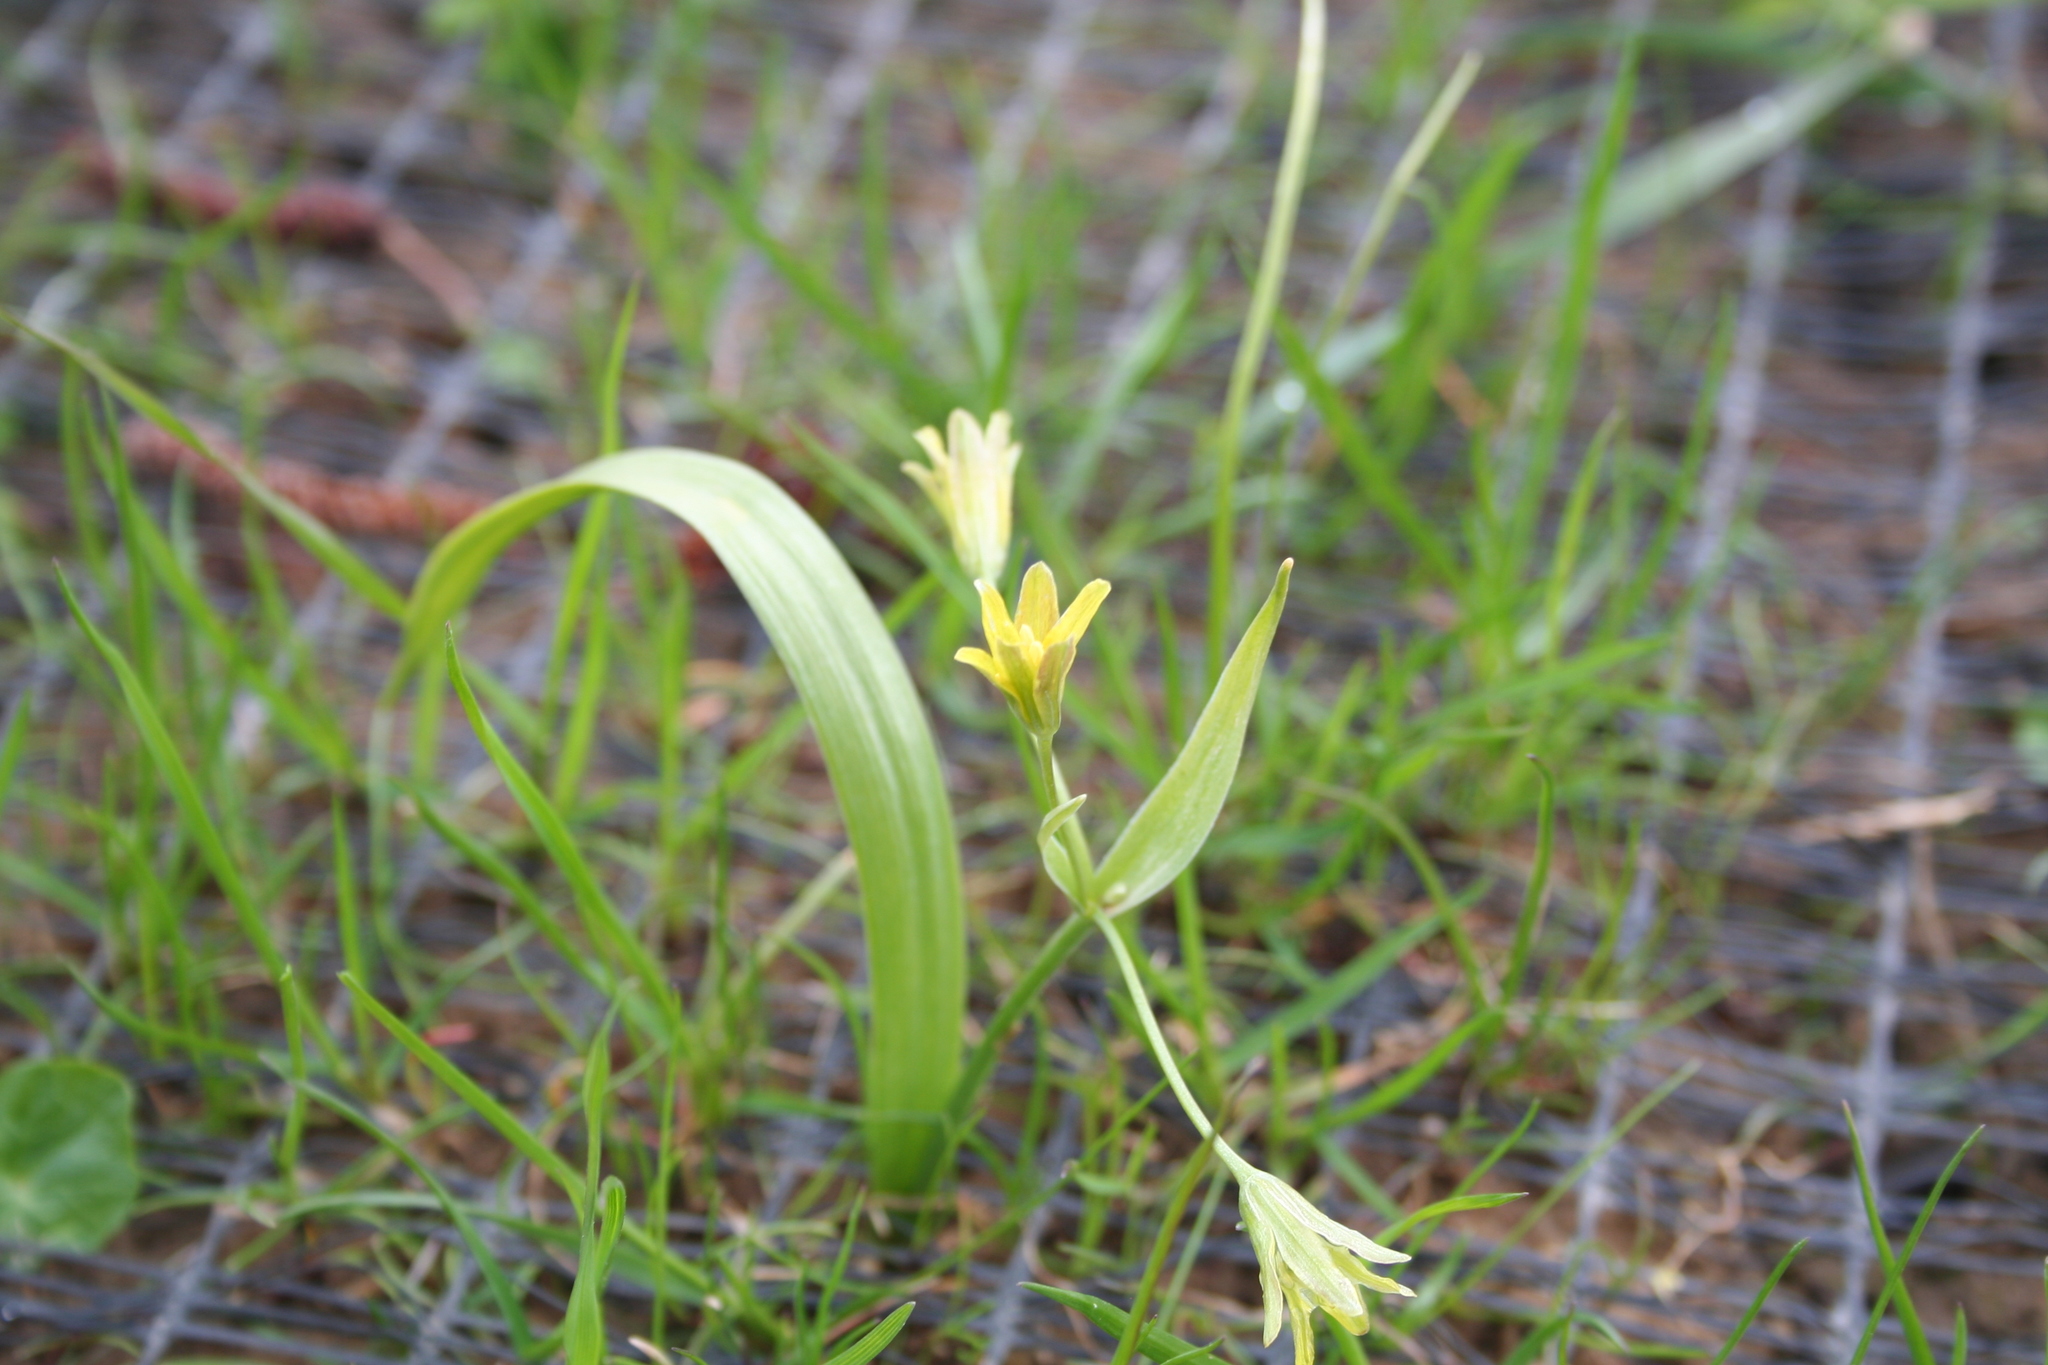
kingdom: Plantae
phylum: Tracheophyta
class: Liliopsida
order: Liliales
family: Liliaceae
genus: Gagea
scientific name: Gagea lutea
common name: Yellow star-of-bethlehem
